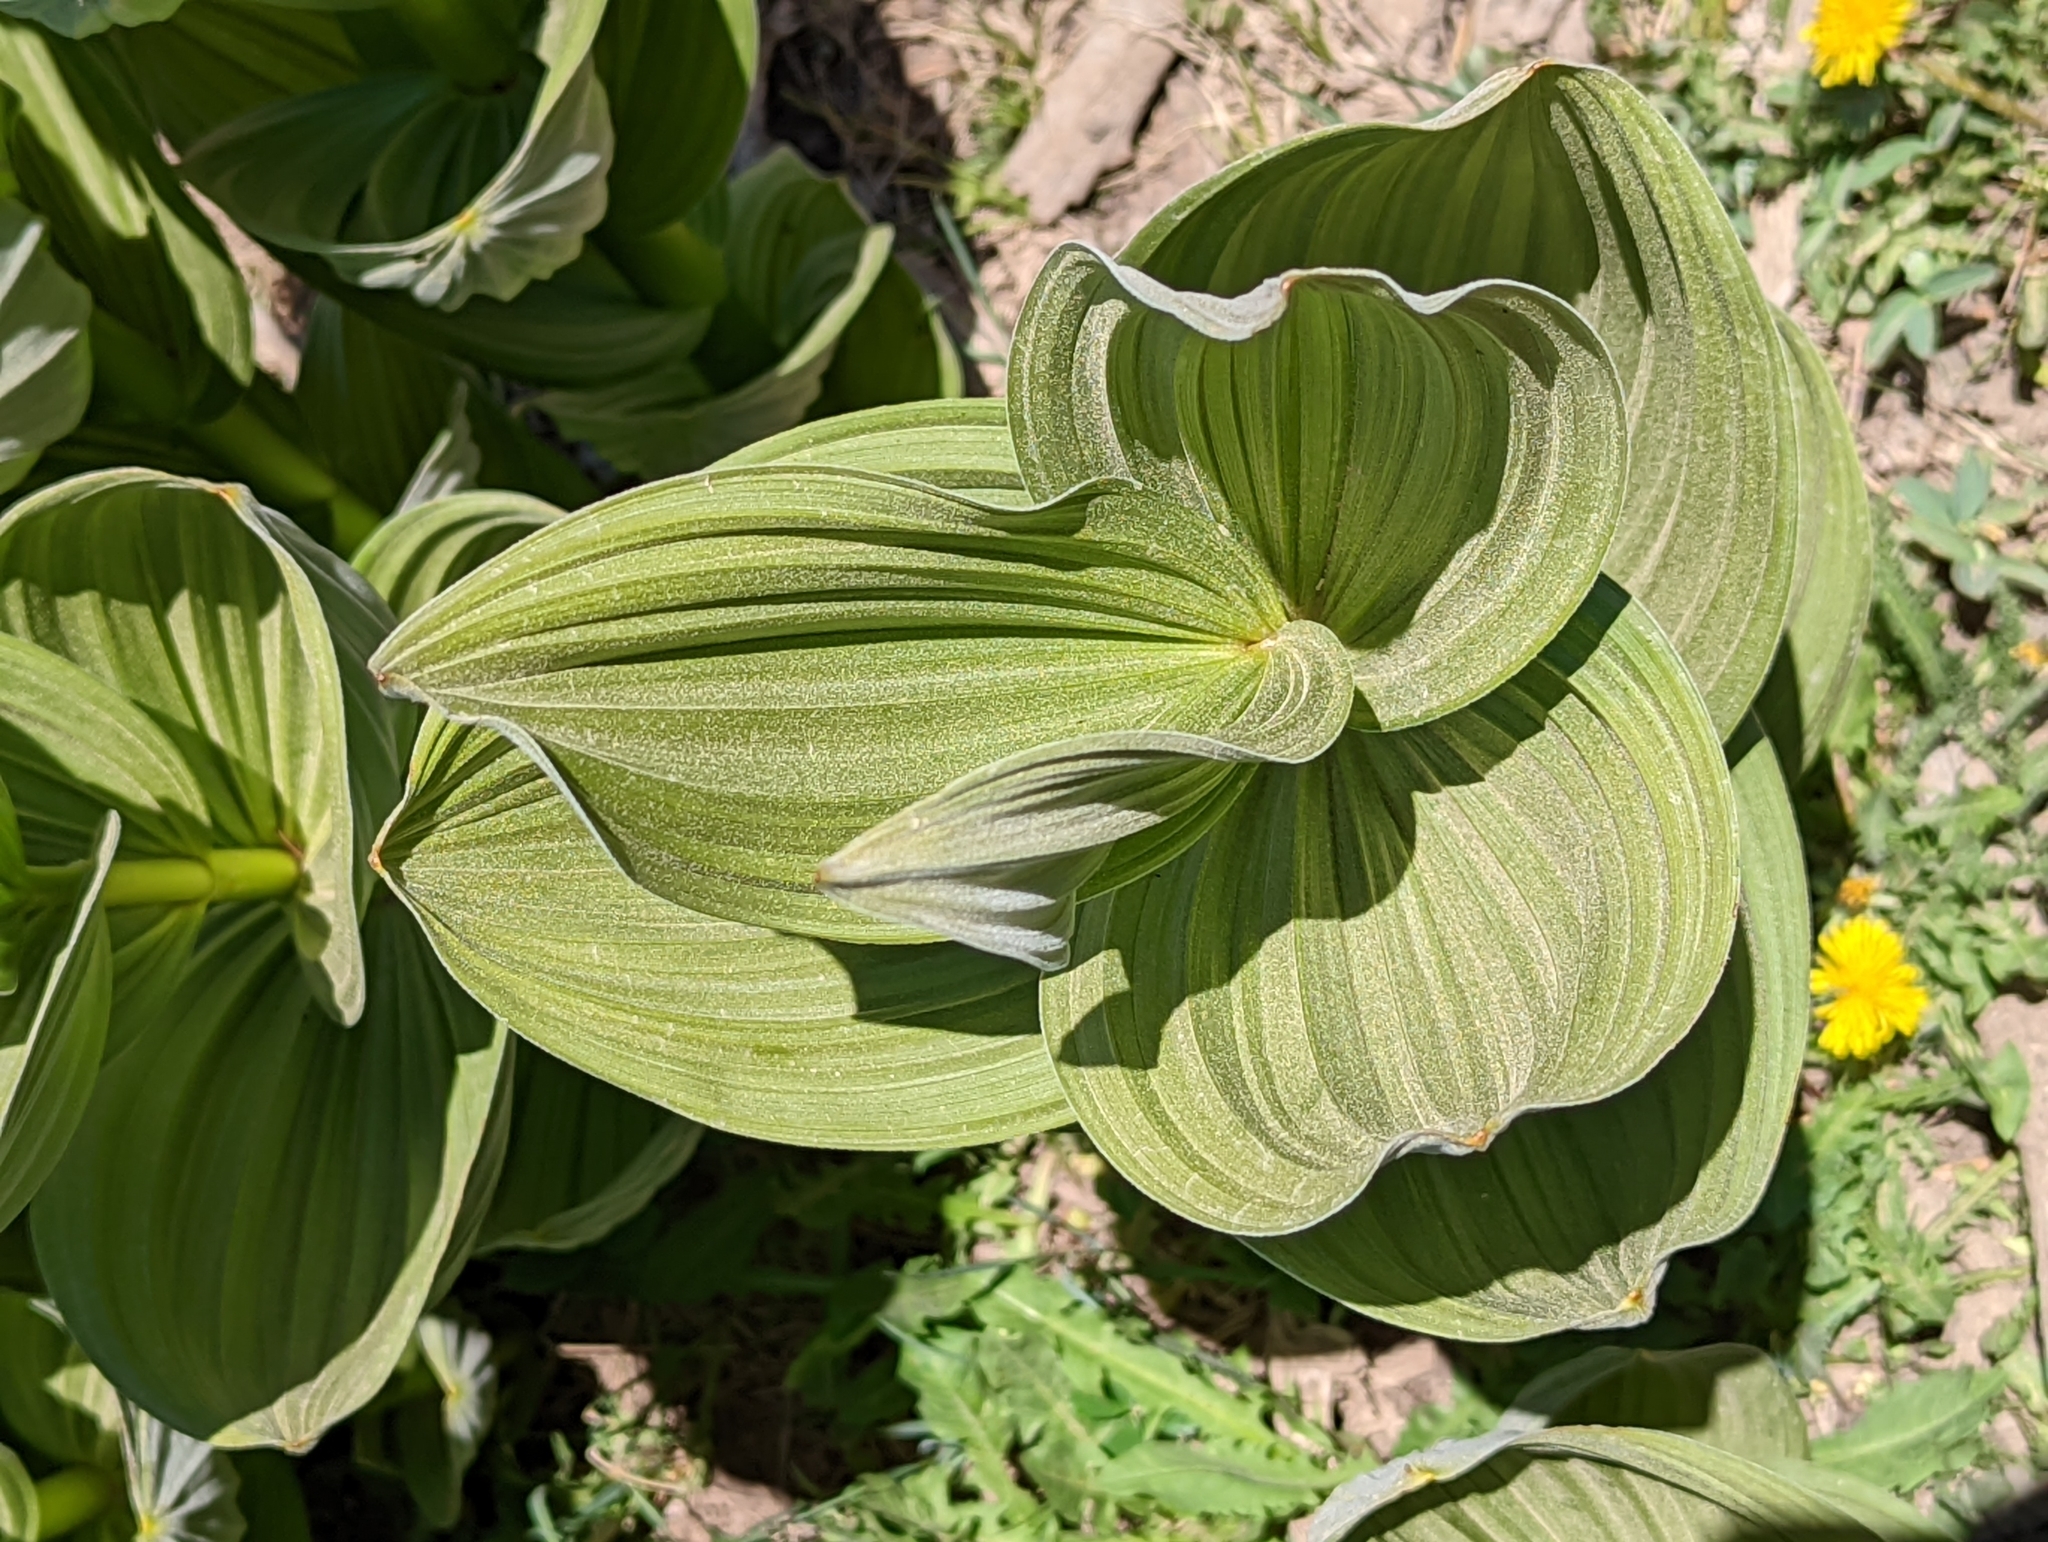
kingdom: Plantae
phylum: Tracheophyta
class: Liliopsida
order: Liliales
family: Melanthiaceae
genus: Veratrum
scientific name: Veratrum californicum
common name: California veratrum
